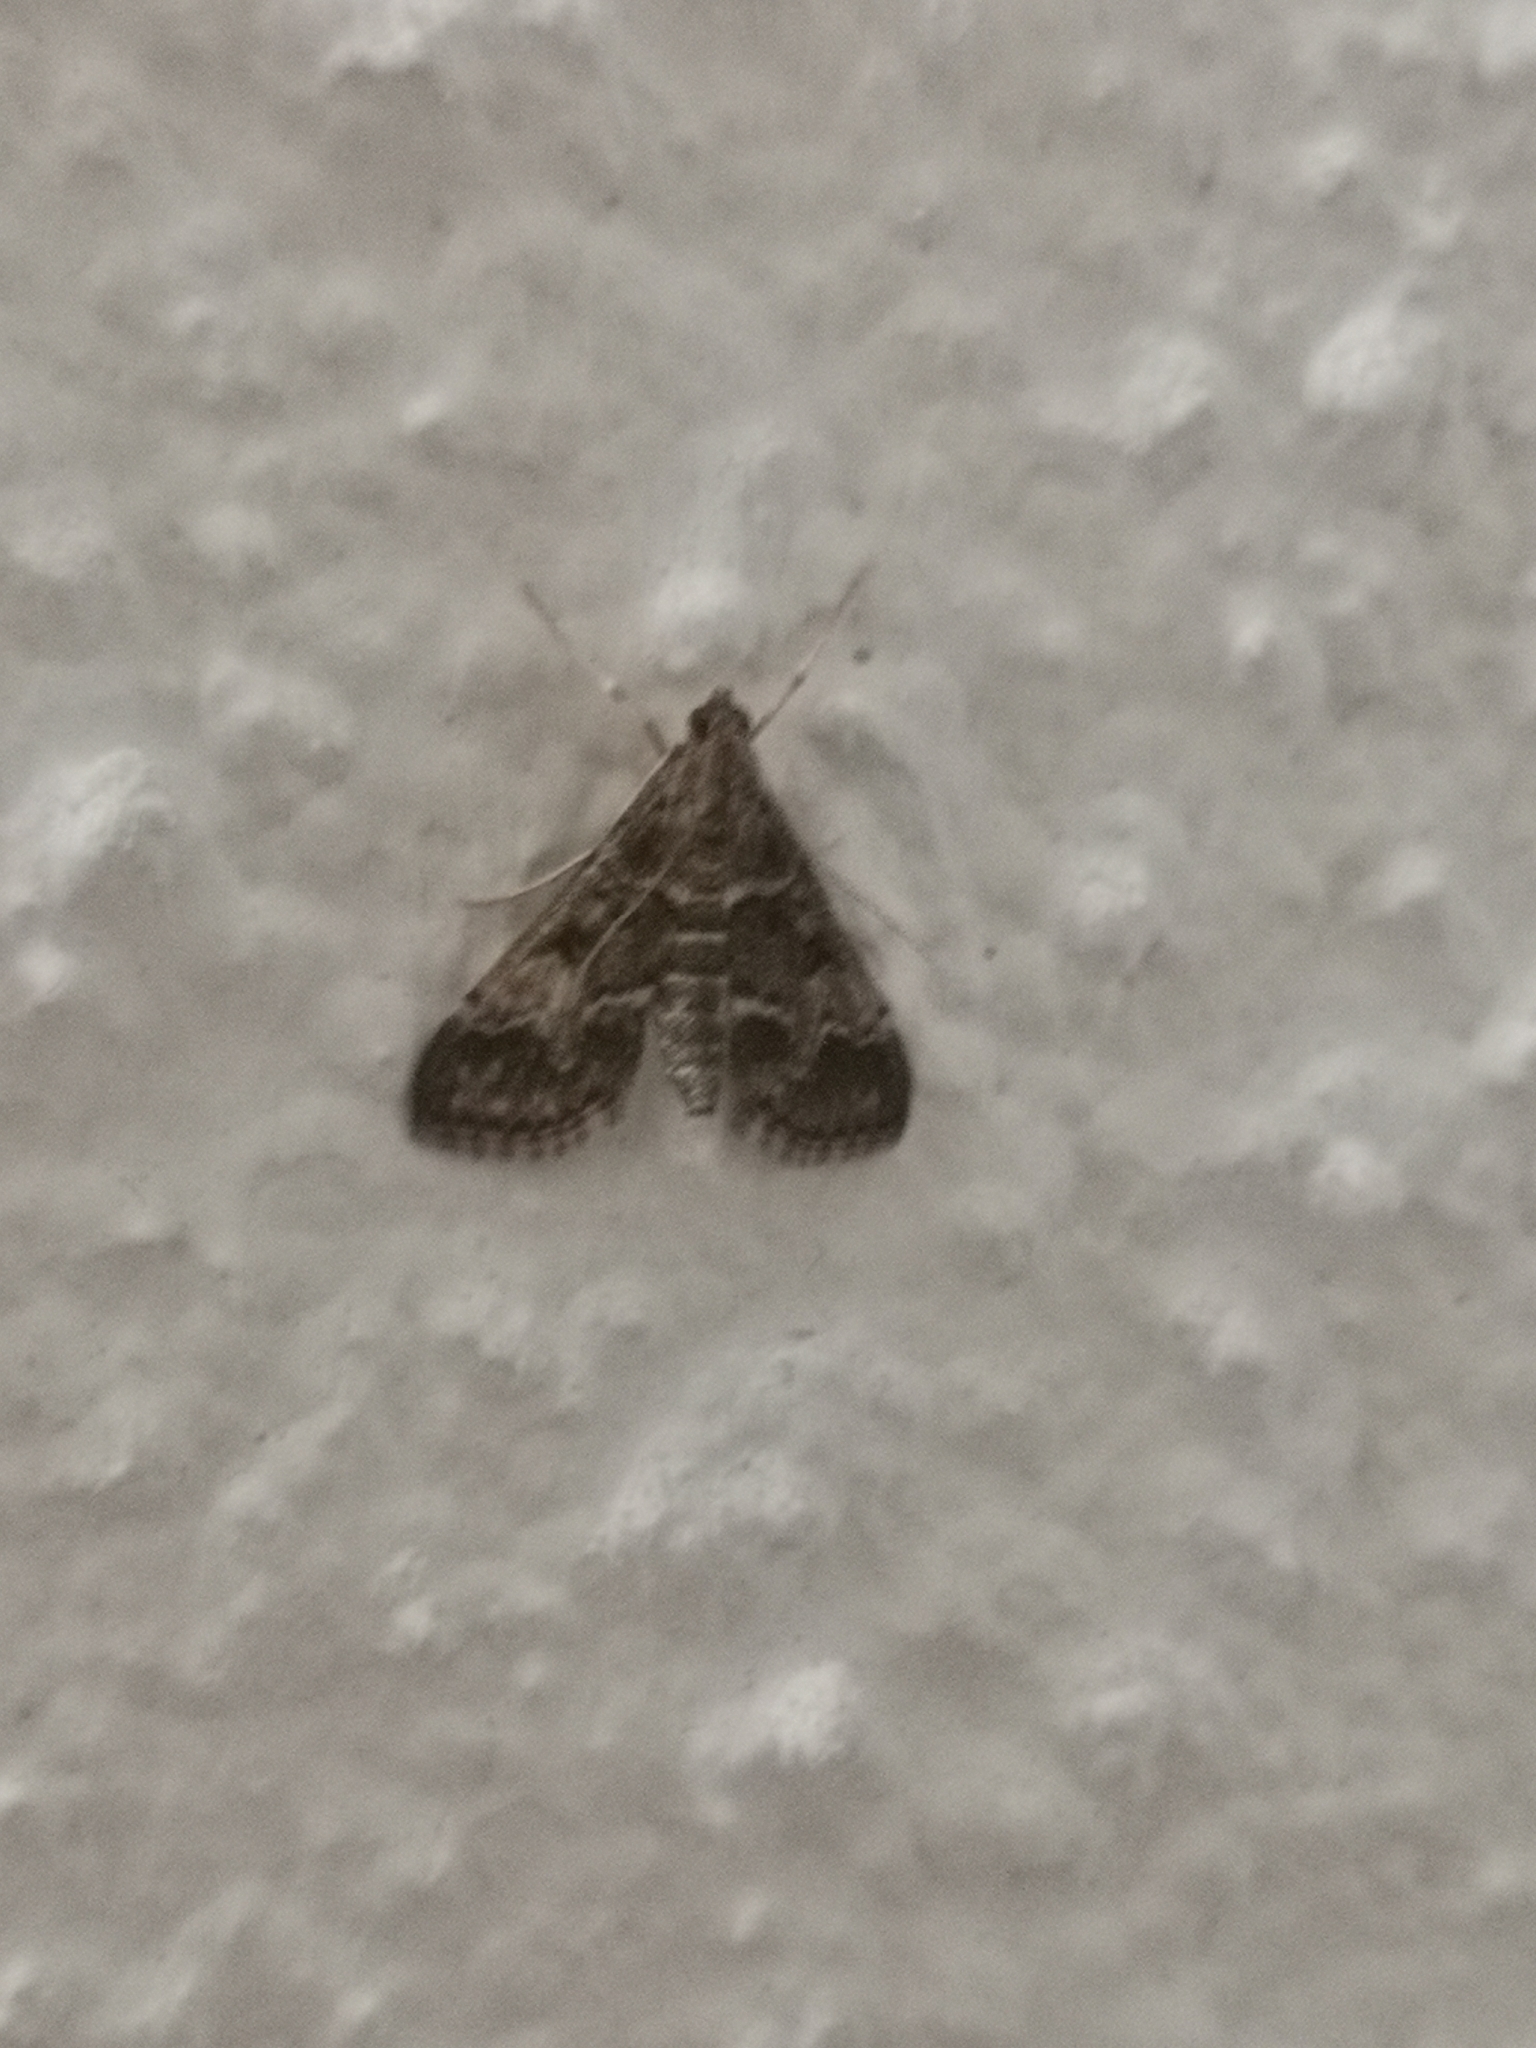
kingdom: Animalia
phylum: Arthropoda
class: Insecta
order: Lepidoptera
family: Crambidae
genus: Duponchelia
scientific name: Duponchelia fovealis
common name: Crambid moth
